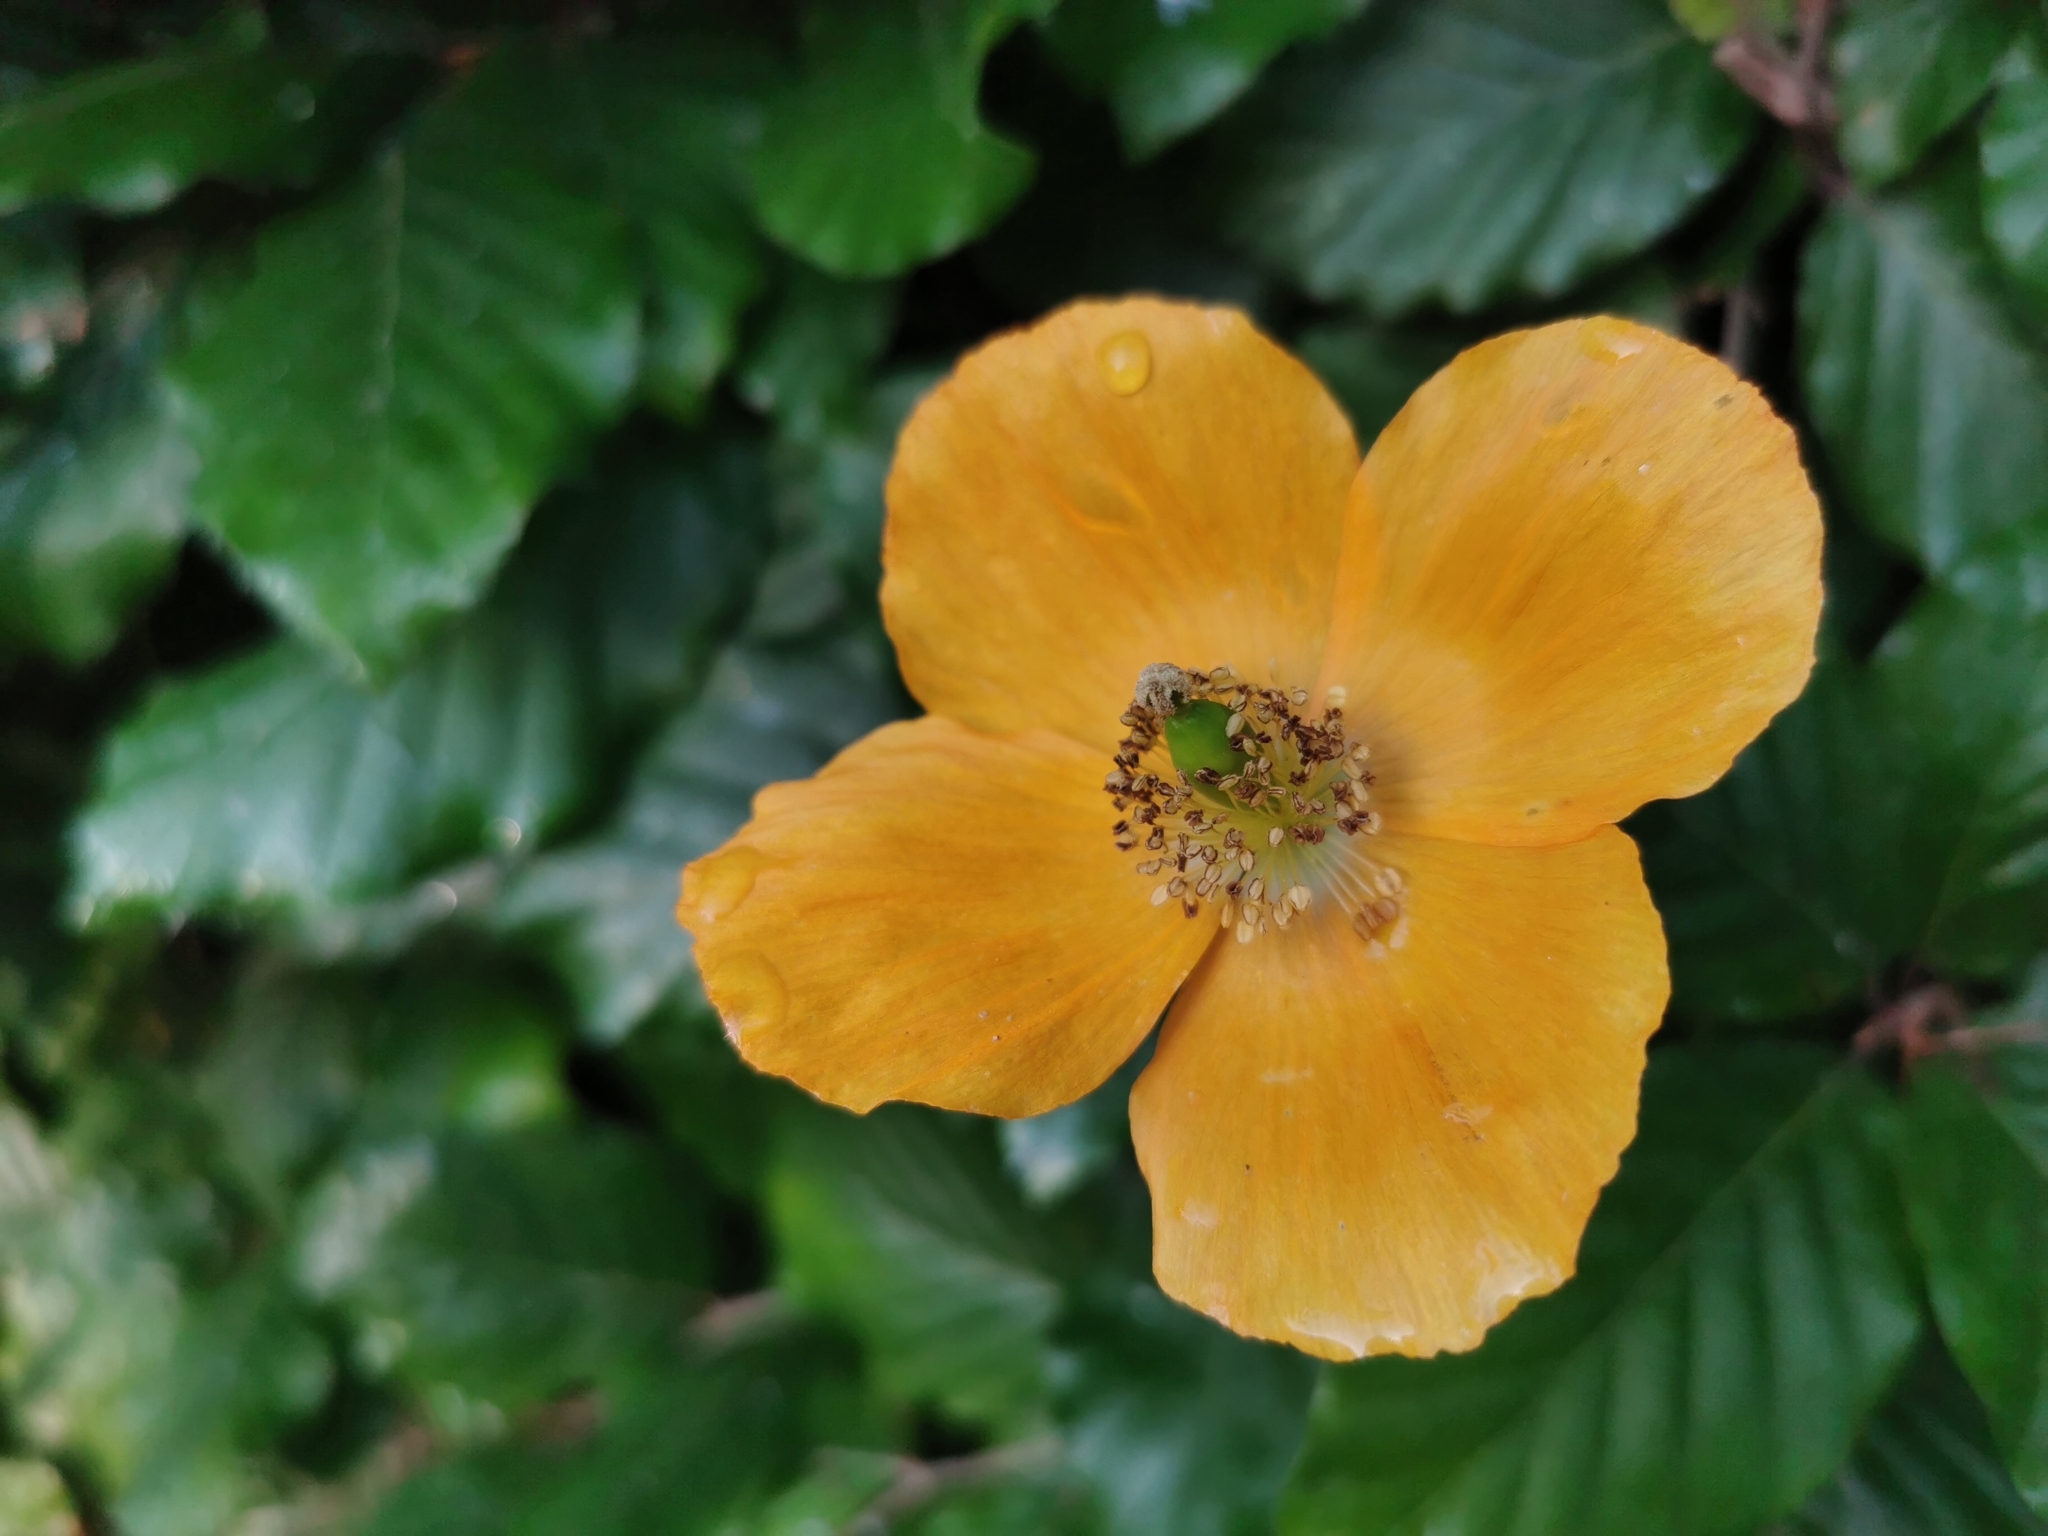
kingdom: Plantae
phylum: Tracheophyta
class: Magnoliopsida
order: Ranunculales
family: Papaveraceae
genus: Papaver
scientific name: Papaver cambricum
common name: Poppy
